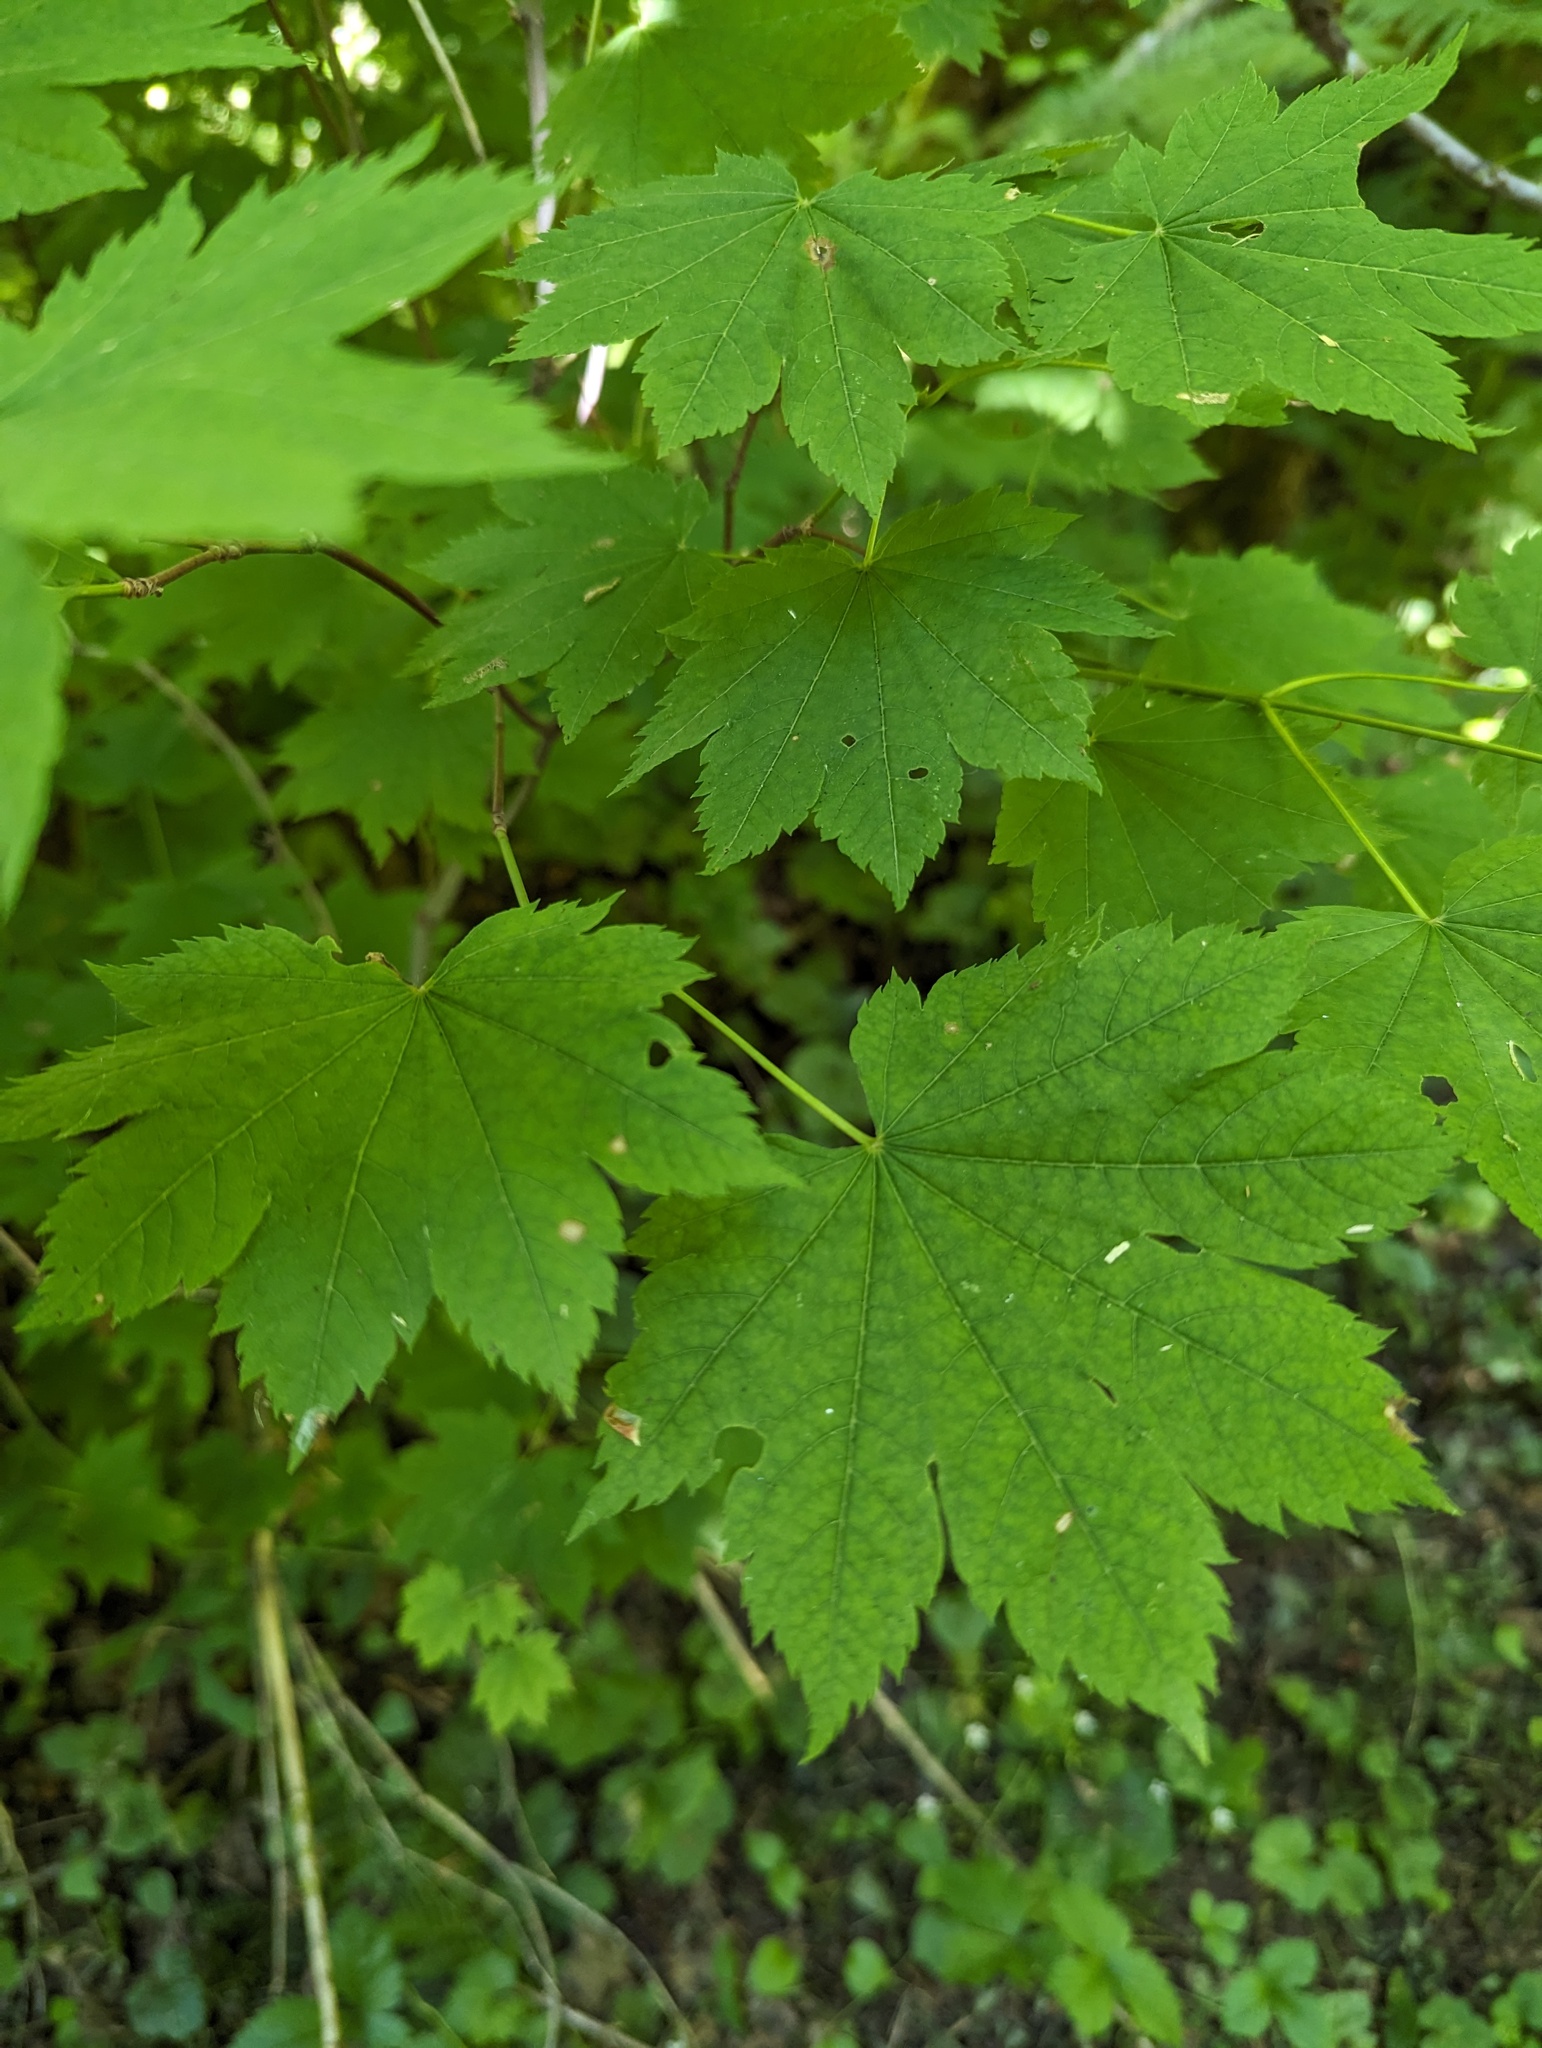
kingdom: Plantae
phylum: Tracheophyta
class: Magnoliopsida
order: Sapindales
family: Sapindaceae
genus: Acer
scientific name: Acer circinatum
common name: Vine maple
